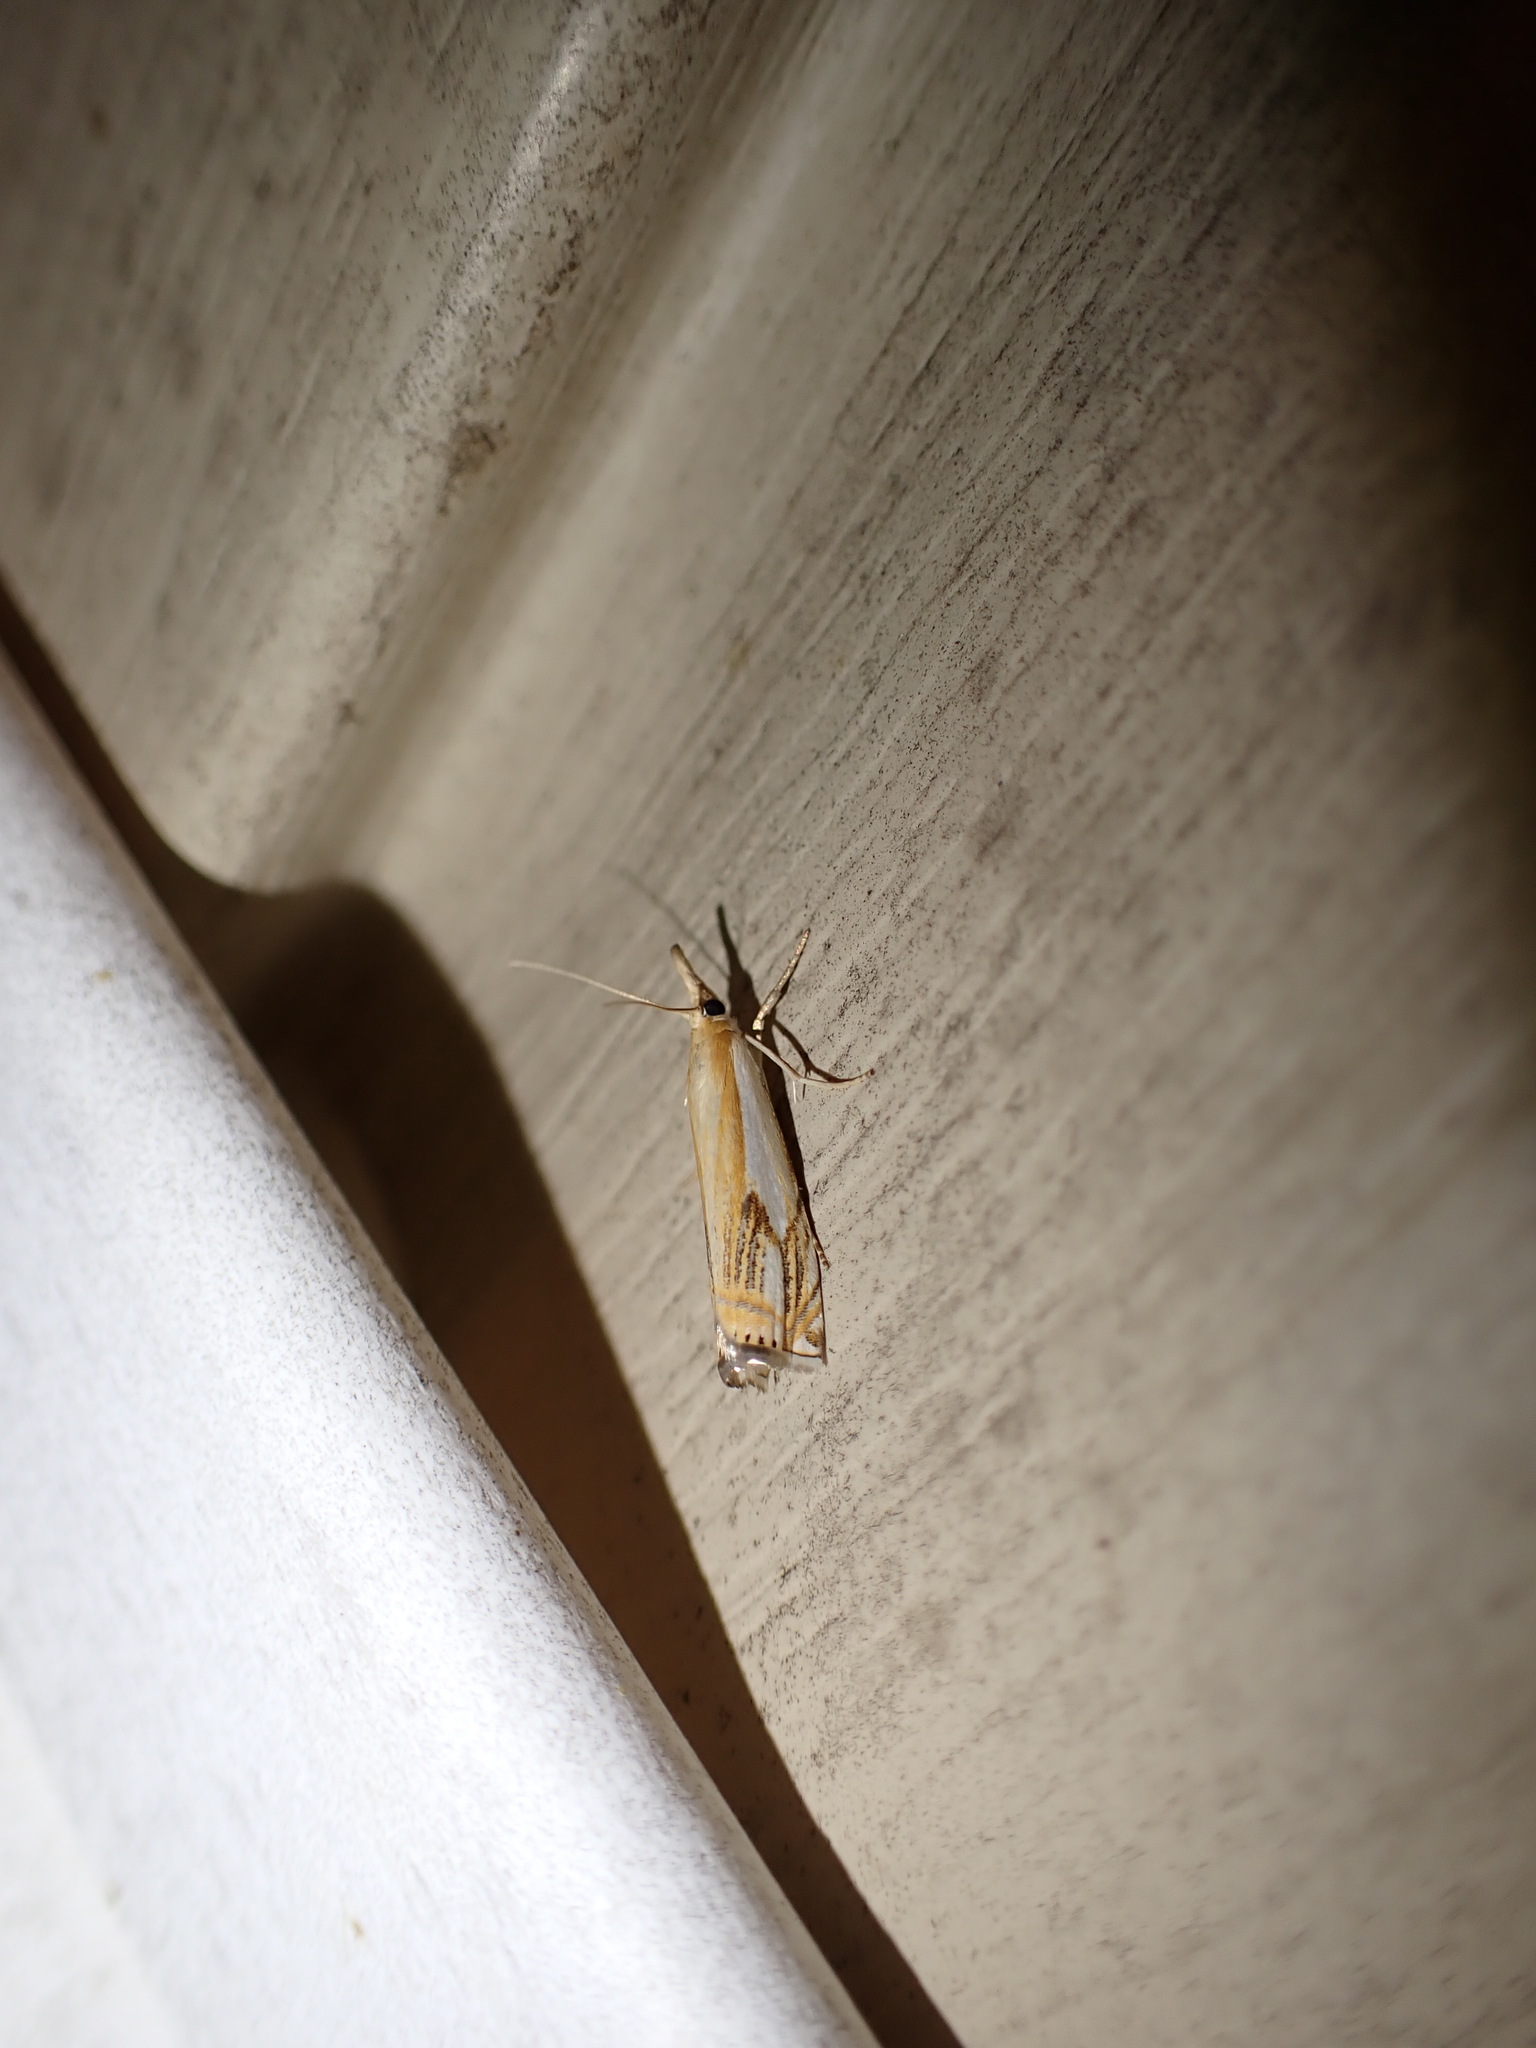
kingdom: Animalia
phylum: Arthropoda
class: Insecta
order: Lepidoptera
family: Crambidae
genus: Crambus
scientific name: Crambus agitatellus
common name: Double-banded grass-veneer
